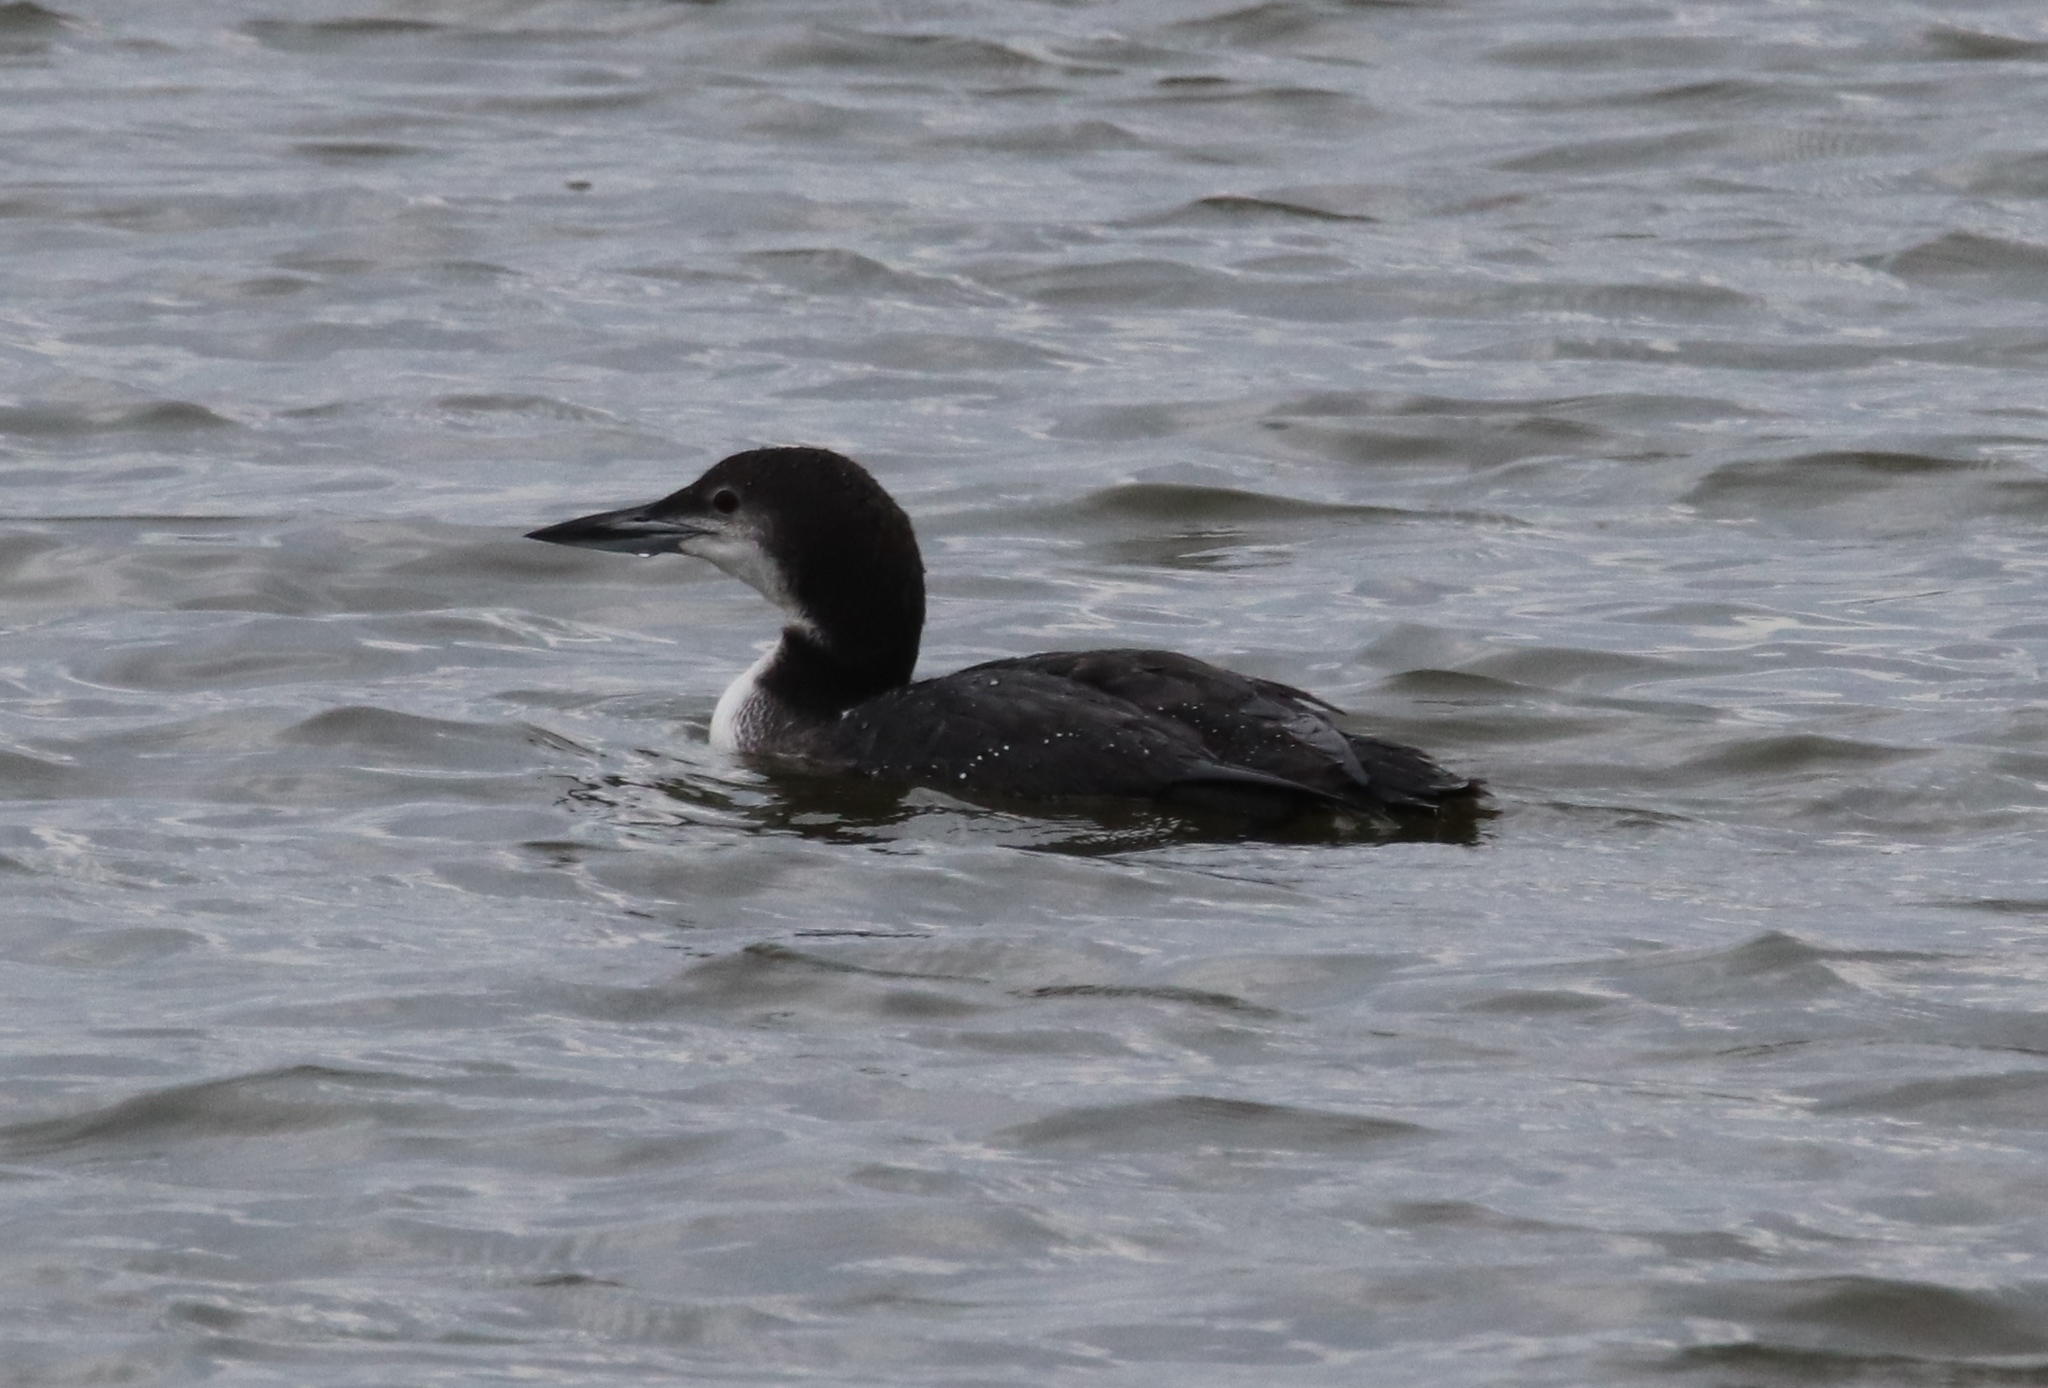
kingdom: Animalia
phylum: Chordata
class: Aves
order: Gaviiformes
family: Gaviidae
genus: Gavia
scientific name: Gavia immer
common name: Common loon
